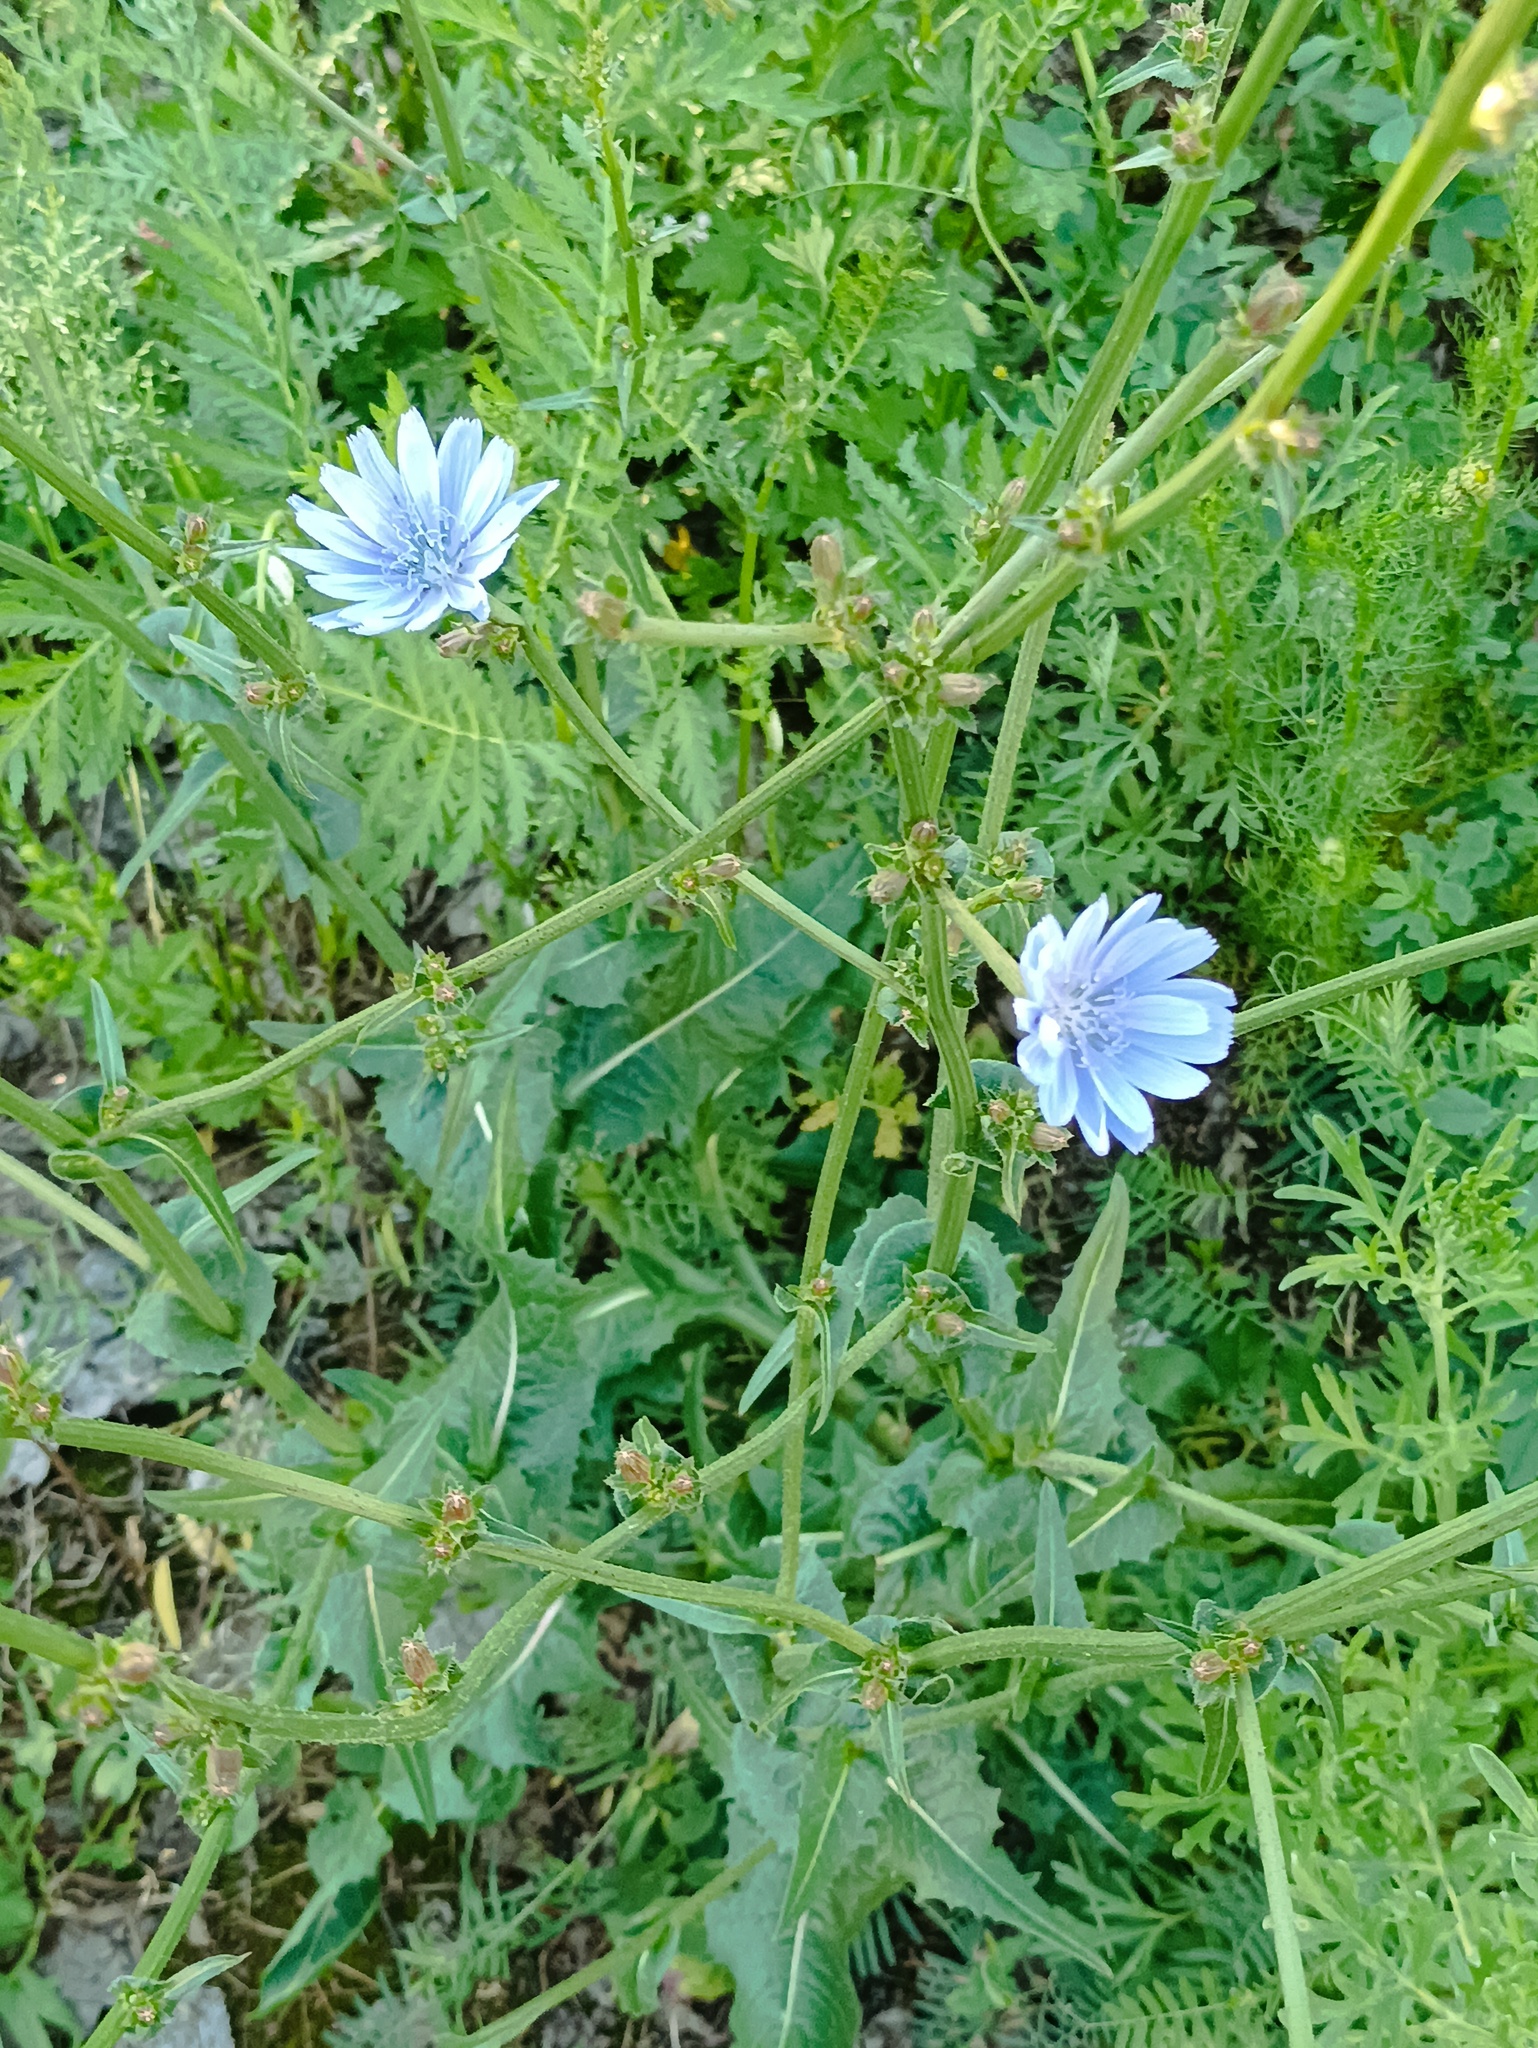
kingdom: Plantae
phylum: Tracheophyta
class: Magnoliopsida
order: Asterales
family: Asteraceae
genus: Cichorium
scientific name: Cichorium intybus
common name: Chicory
